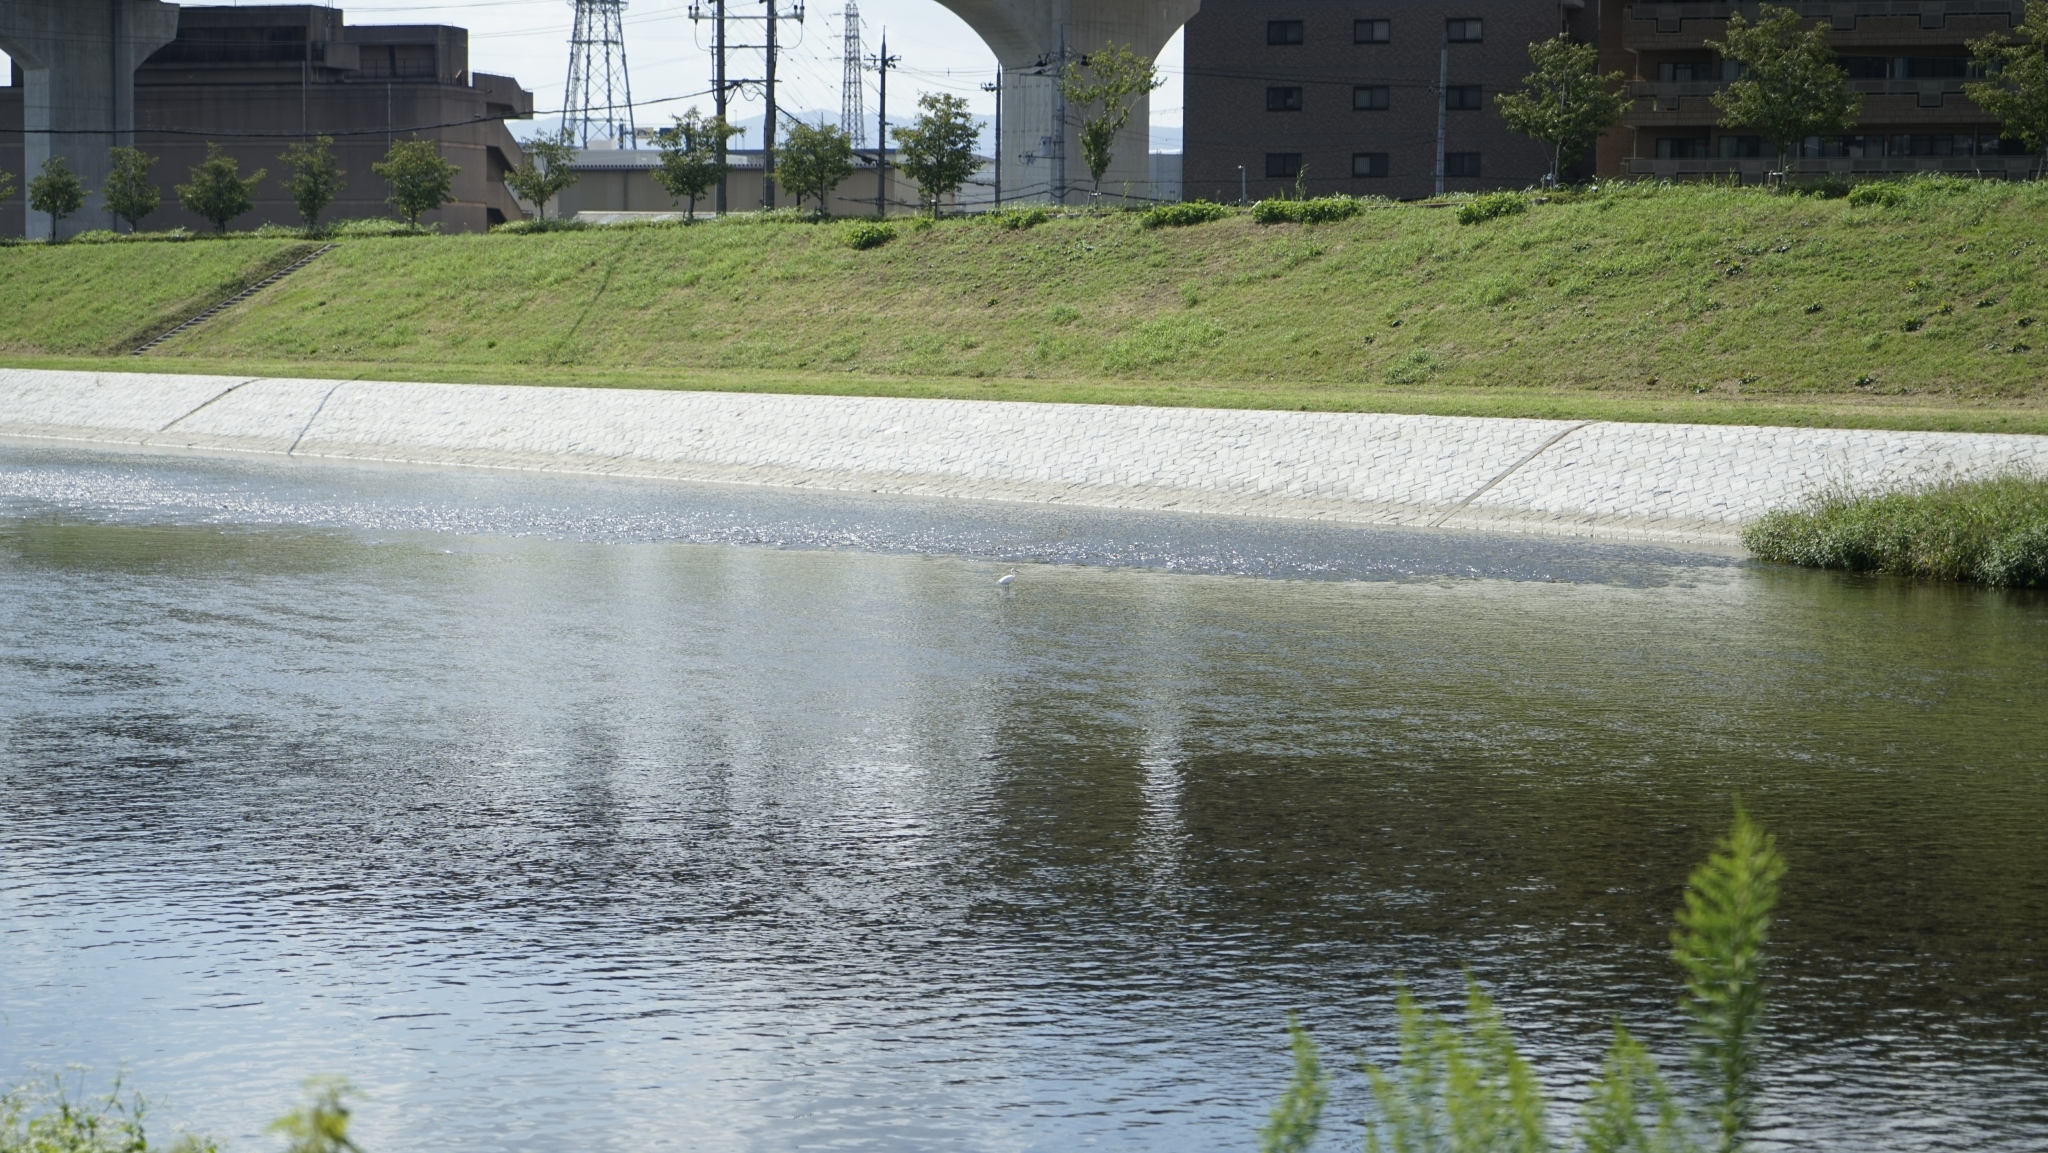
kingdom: Animalia
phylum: Chordata
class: Aves
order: Pelecaniformes
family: Ardeidae
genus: Egretta
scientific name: Egretta garzetta
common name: Little egret
